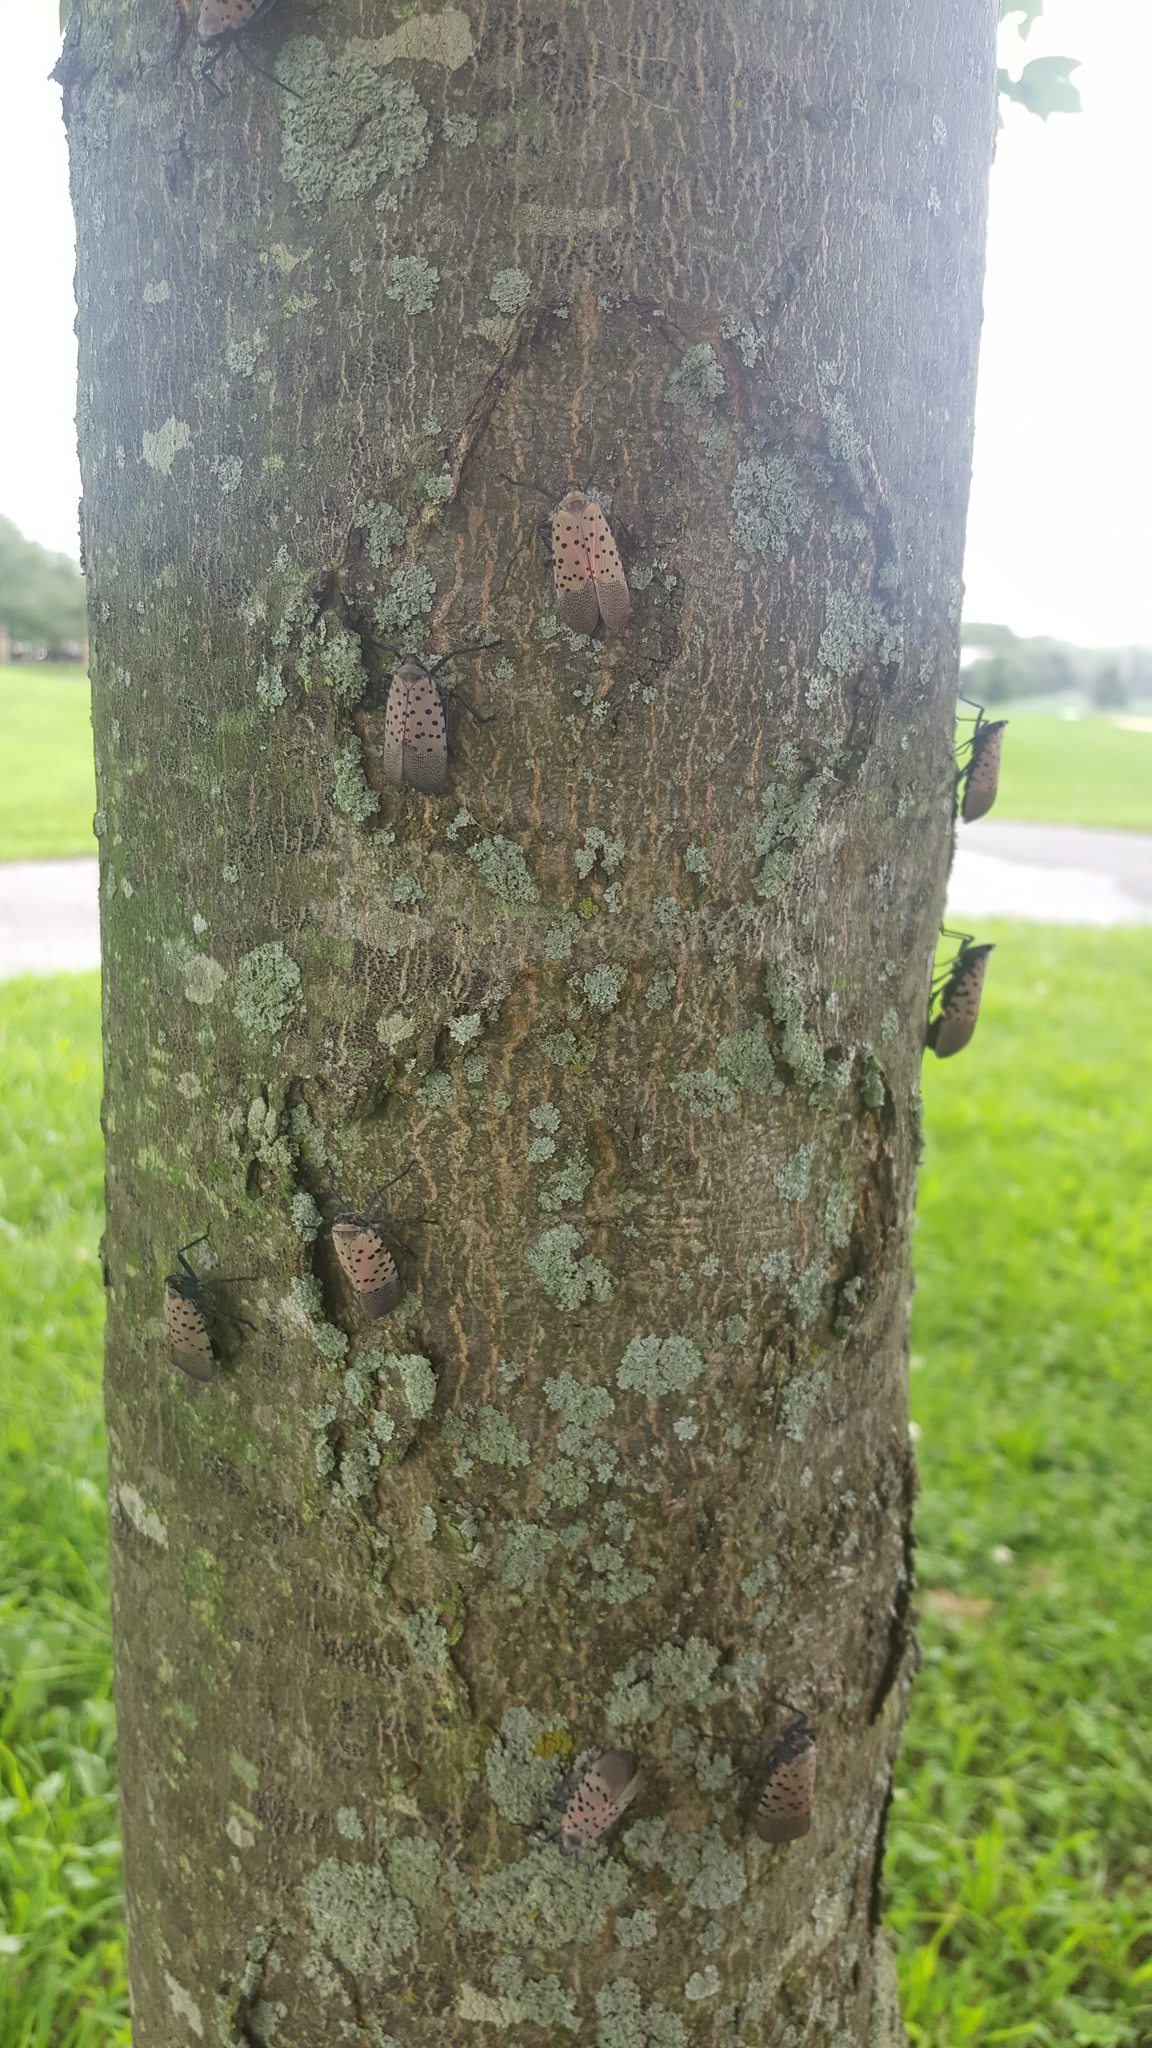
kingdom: Animalia
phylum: Arthropoda
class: Insecta
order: Hemiptera
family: Fulgoridae
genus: Lycorma
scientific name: Lycorma delicatula
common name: Spotted lanternfly
